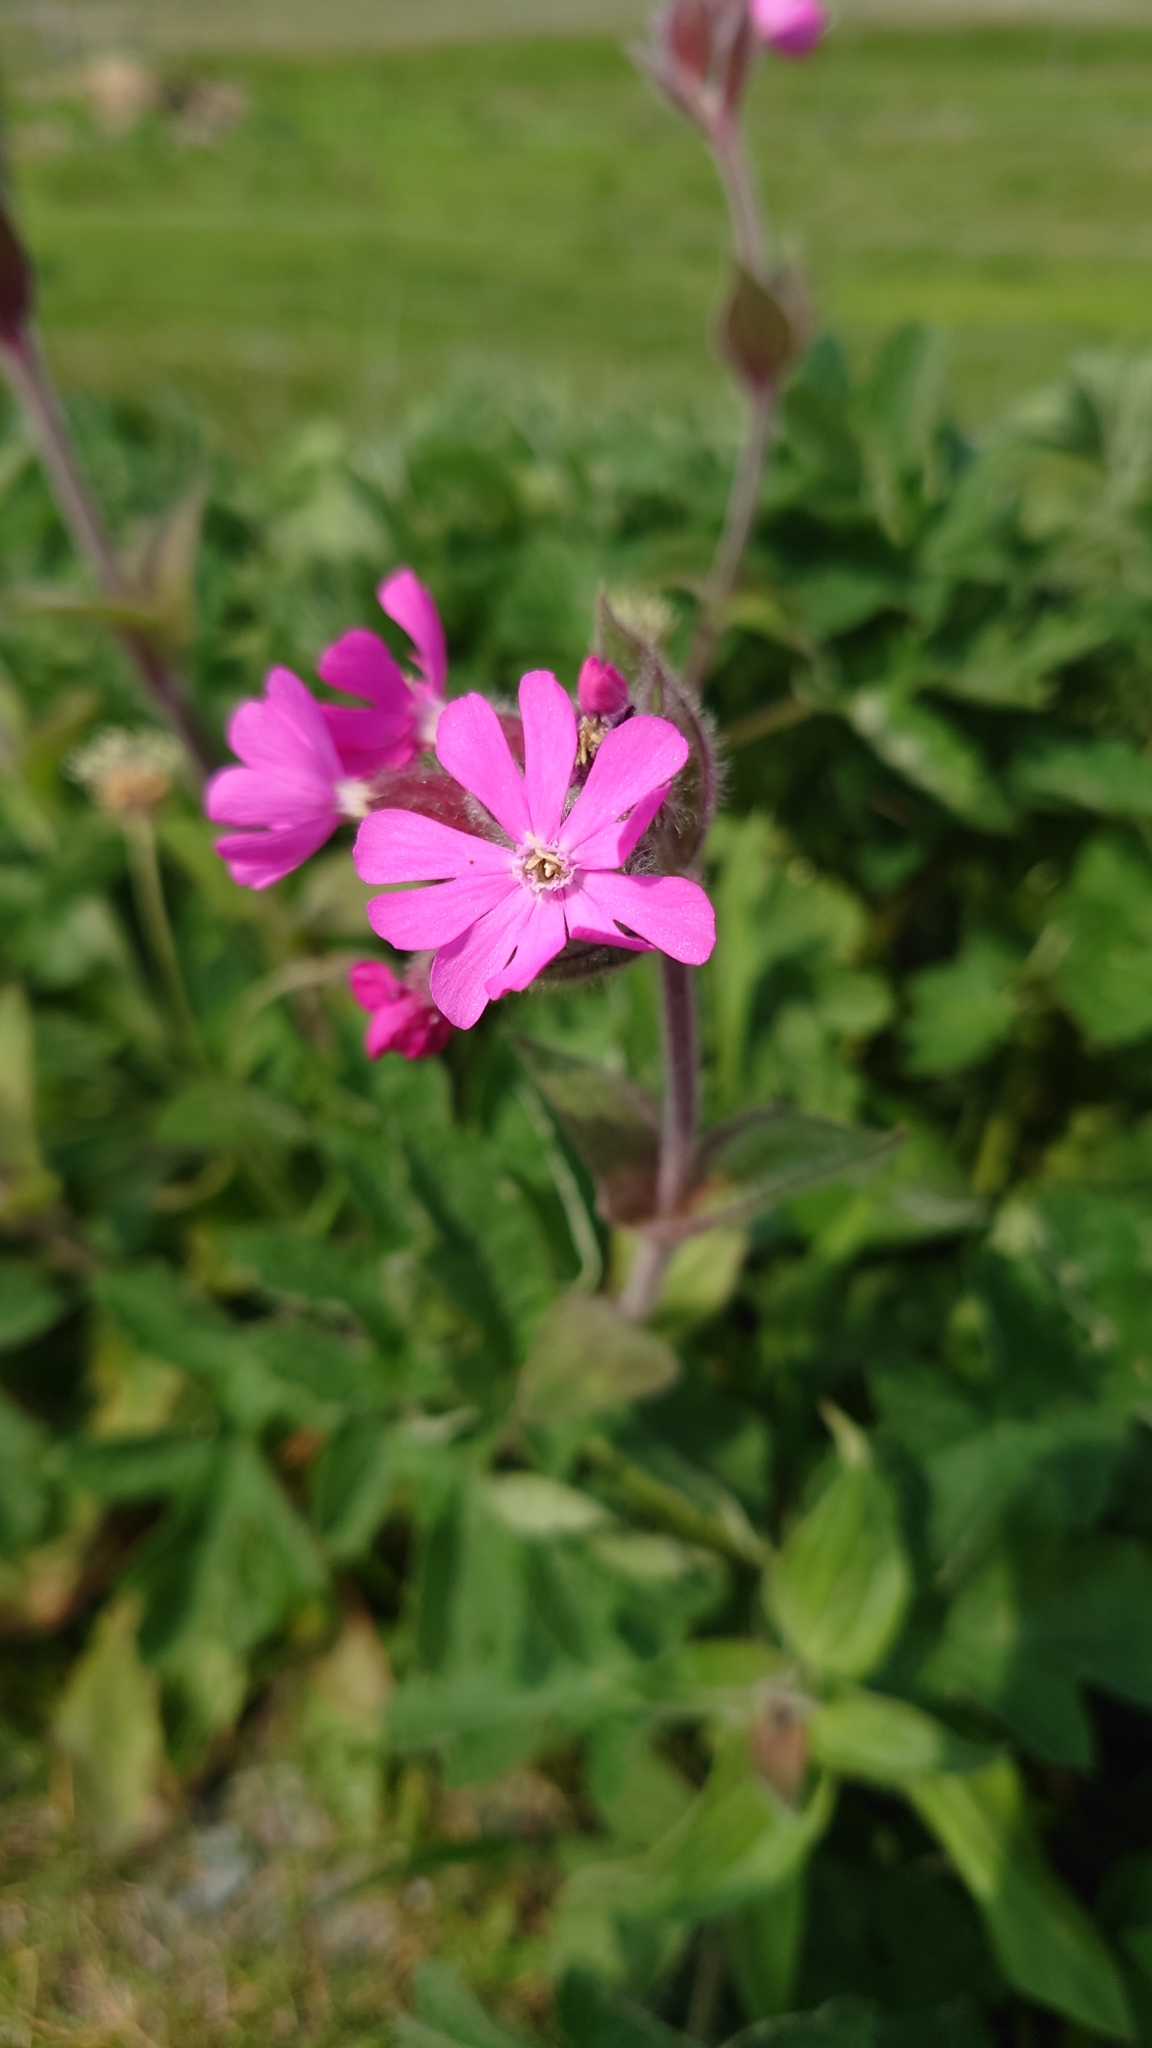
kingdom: Plantae
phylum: Tracheophyta
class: Magnoliopsida
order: Caryophyllales
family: Caryophyllaceae
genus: Silene
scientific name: Silene dioica
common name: Red campion
